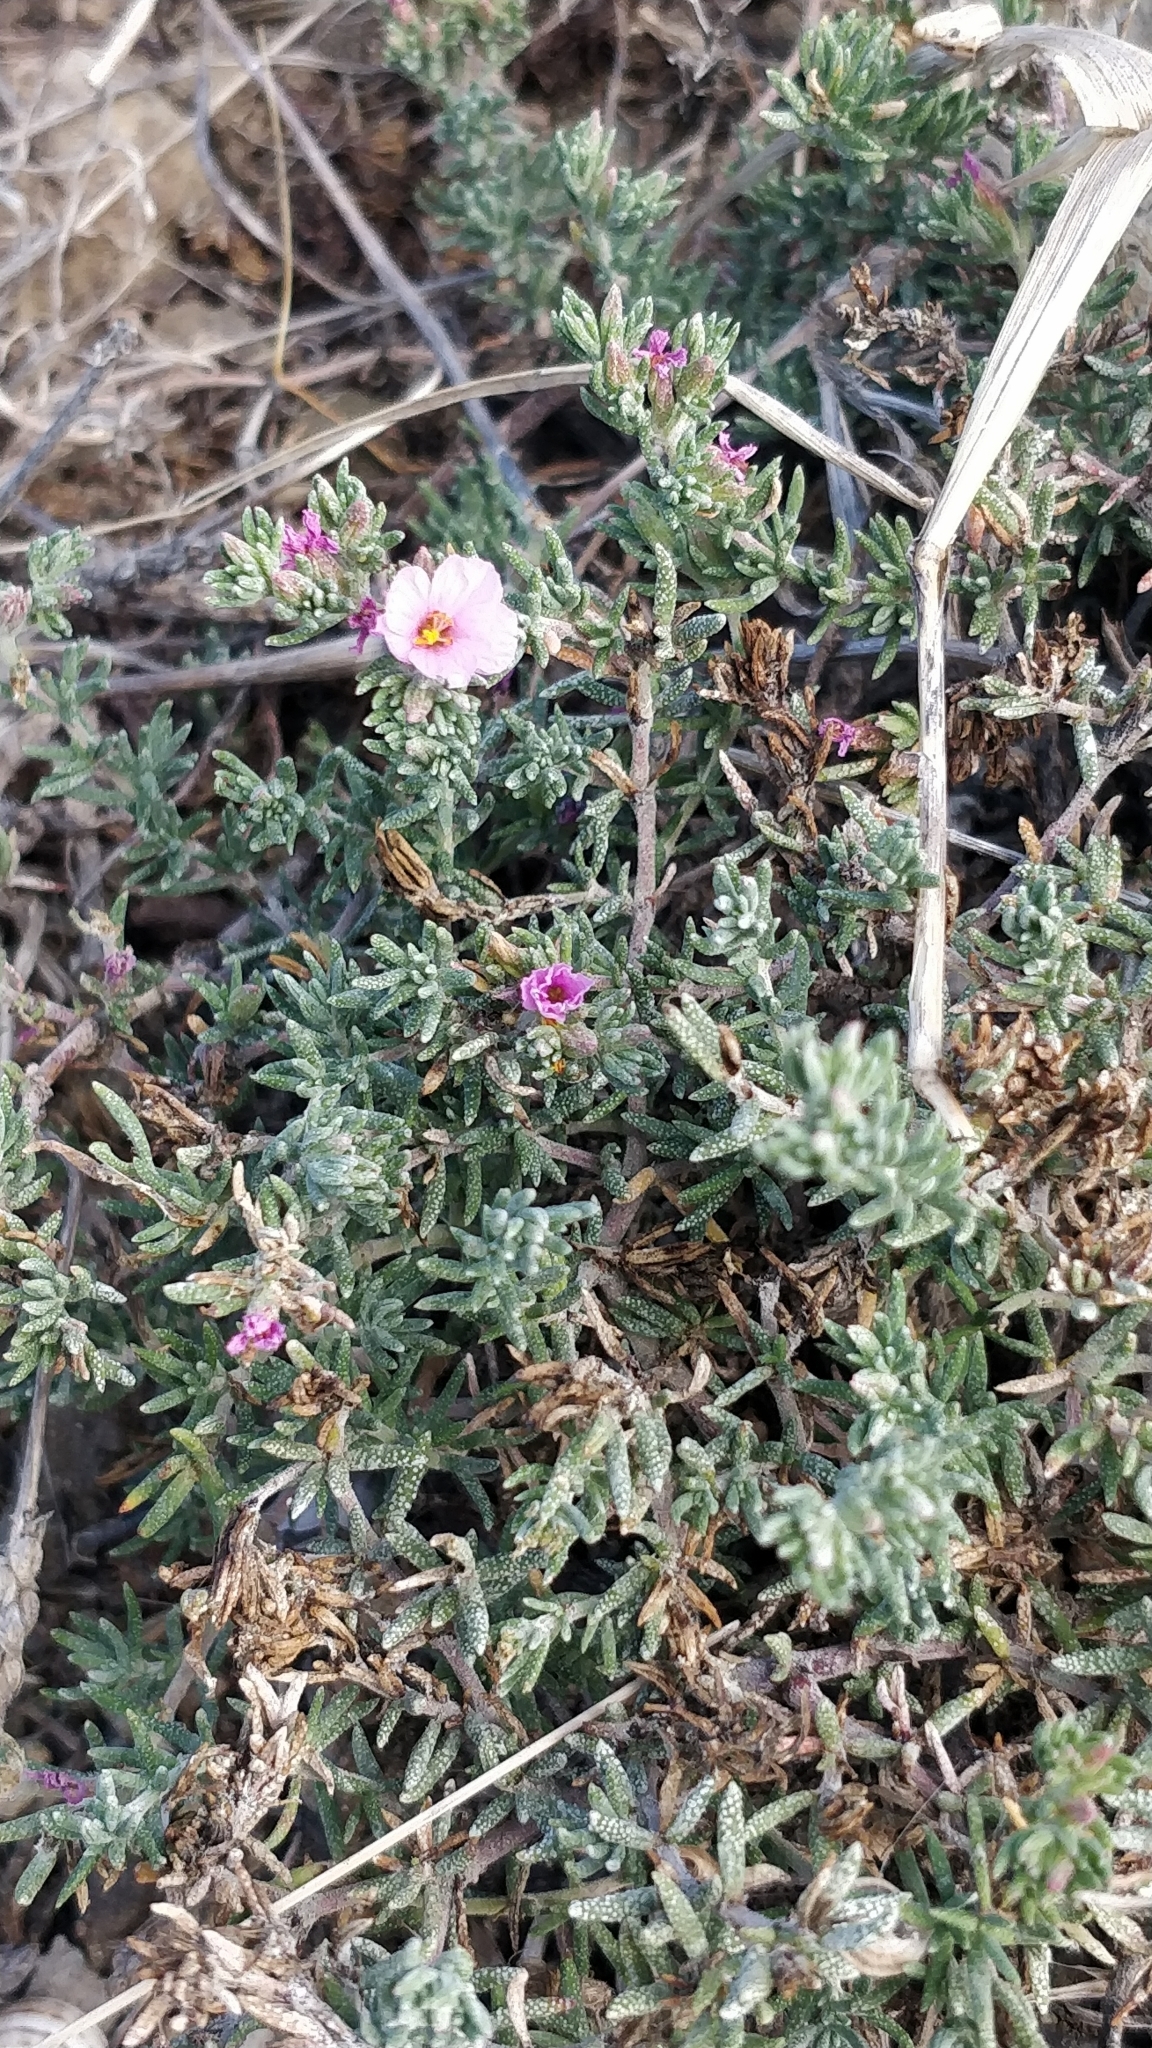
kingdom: Plantae
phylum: Tracheophyta
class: Magnoliopsida
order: Caryophyllales
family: Frankeniaceae
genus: Frankenia
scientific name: Frankenia laevis
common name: Sea-heath
